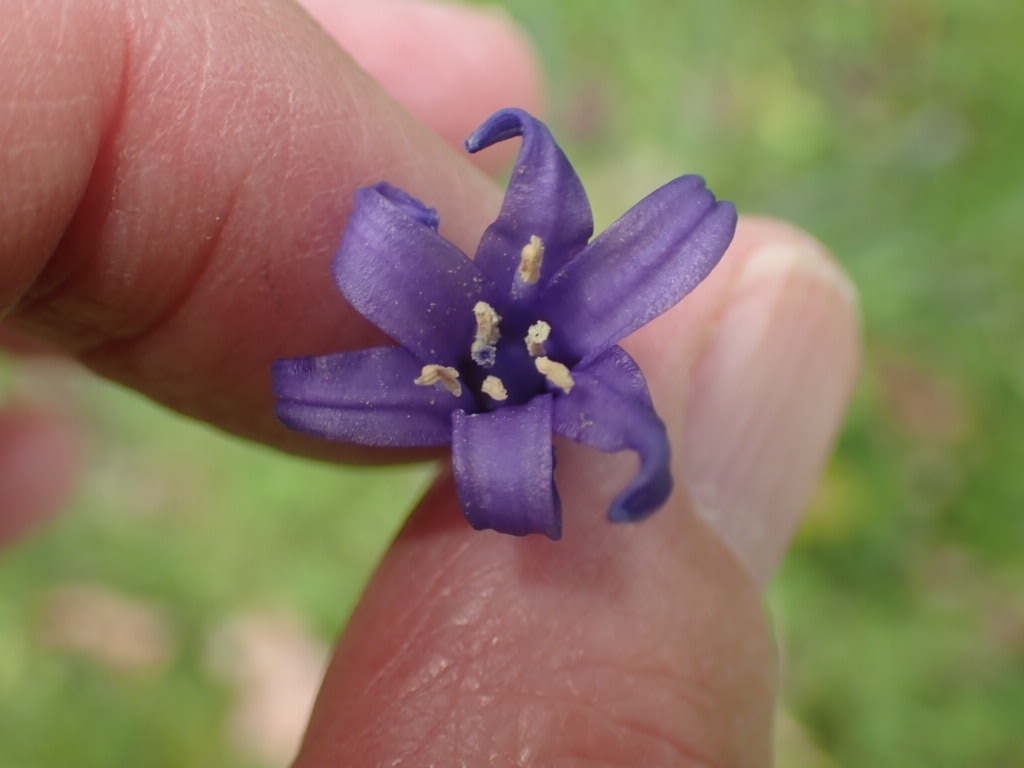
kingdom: Plantae
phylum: Tracheophyta
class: Liliopsida
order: Asparagales
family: Asparagaceae
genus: Hyacinthoides
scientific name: Hyacinthoides non-scripta
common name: Bluebell
